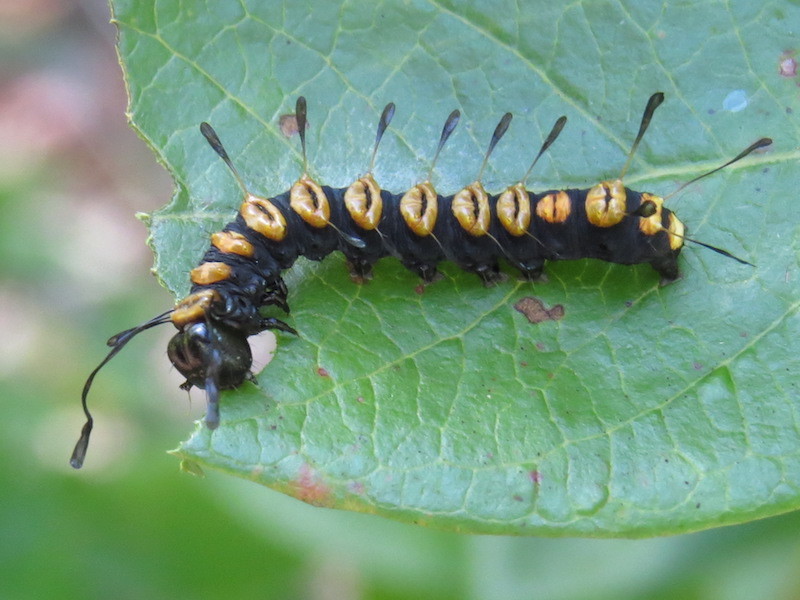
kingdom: Animalia
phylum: Arthropoda
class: Insecta
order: Lepidoptera
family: Noctuidae
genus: Acronicta
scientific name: Acronicta funeralis
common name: Funerary dagger
